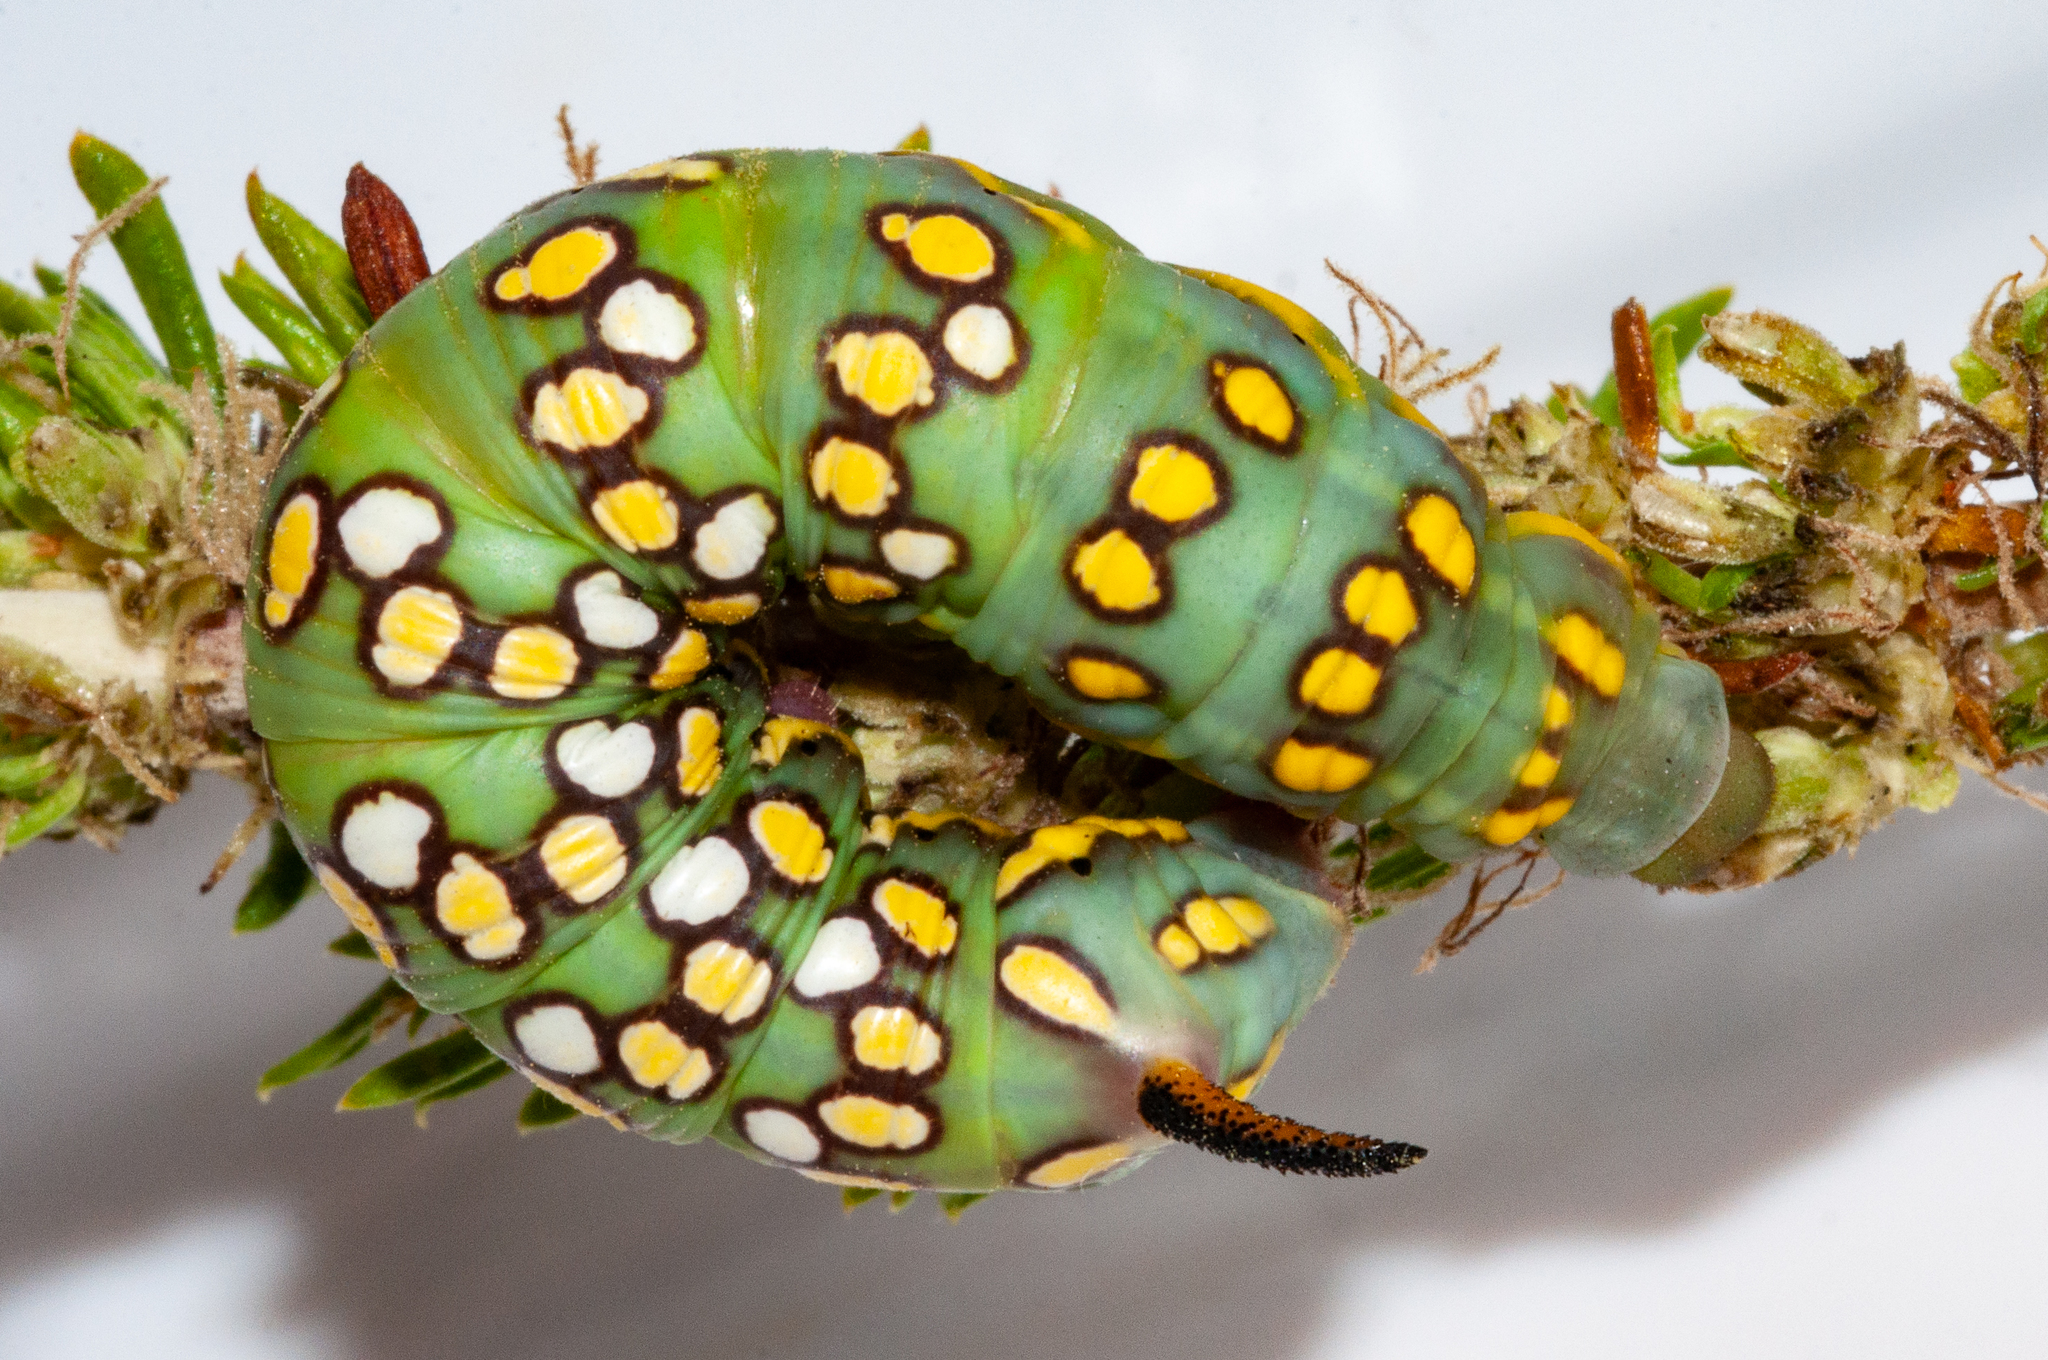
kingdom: Animalia
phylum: Arthropoda
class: Insecta
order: Lepidoptera
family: Sphingidae
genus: Temnora
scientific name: Temnora pylas
